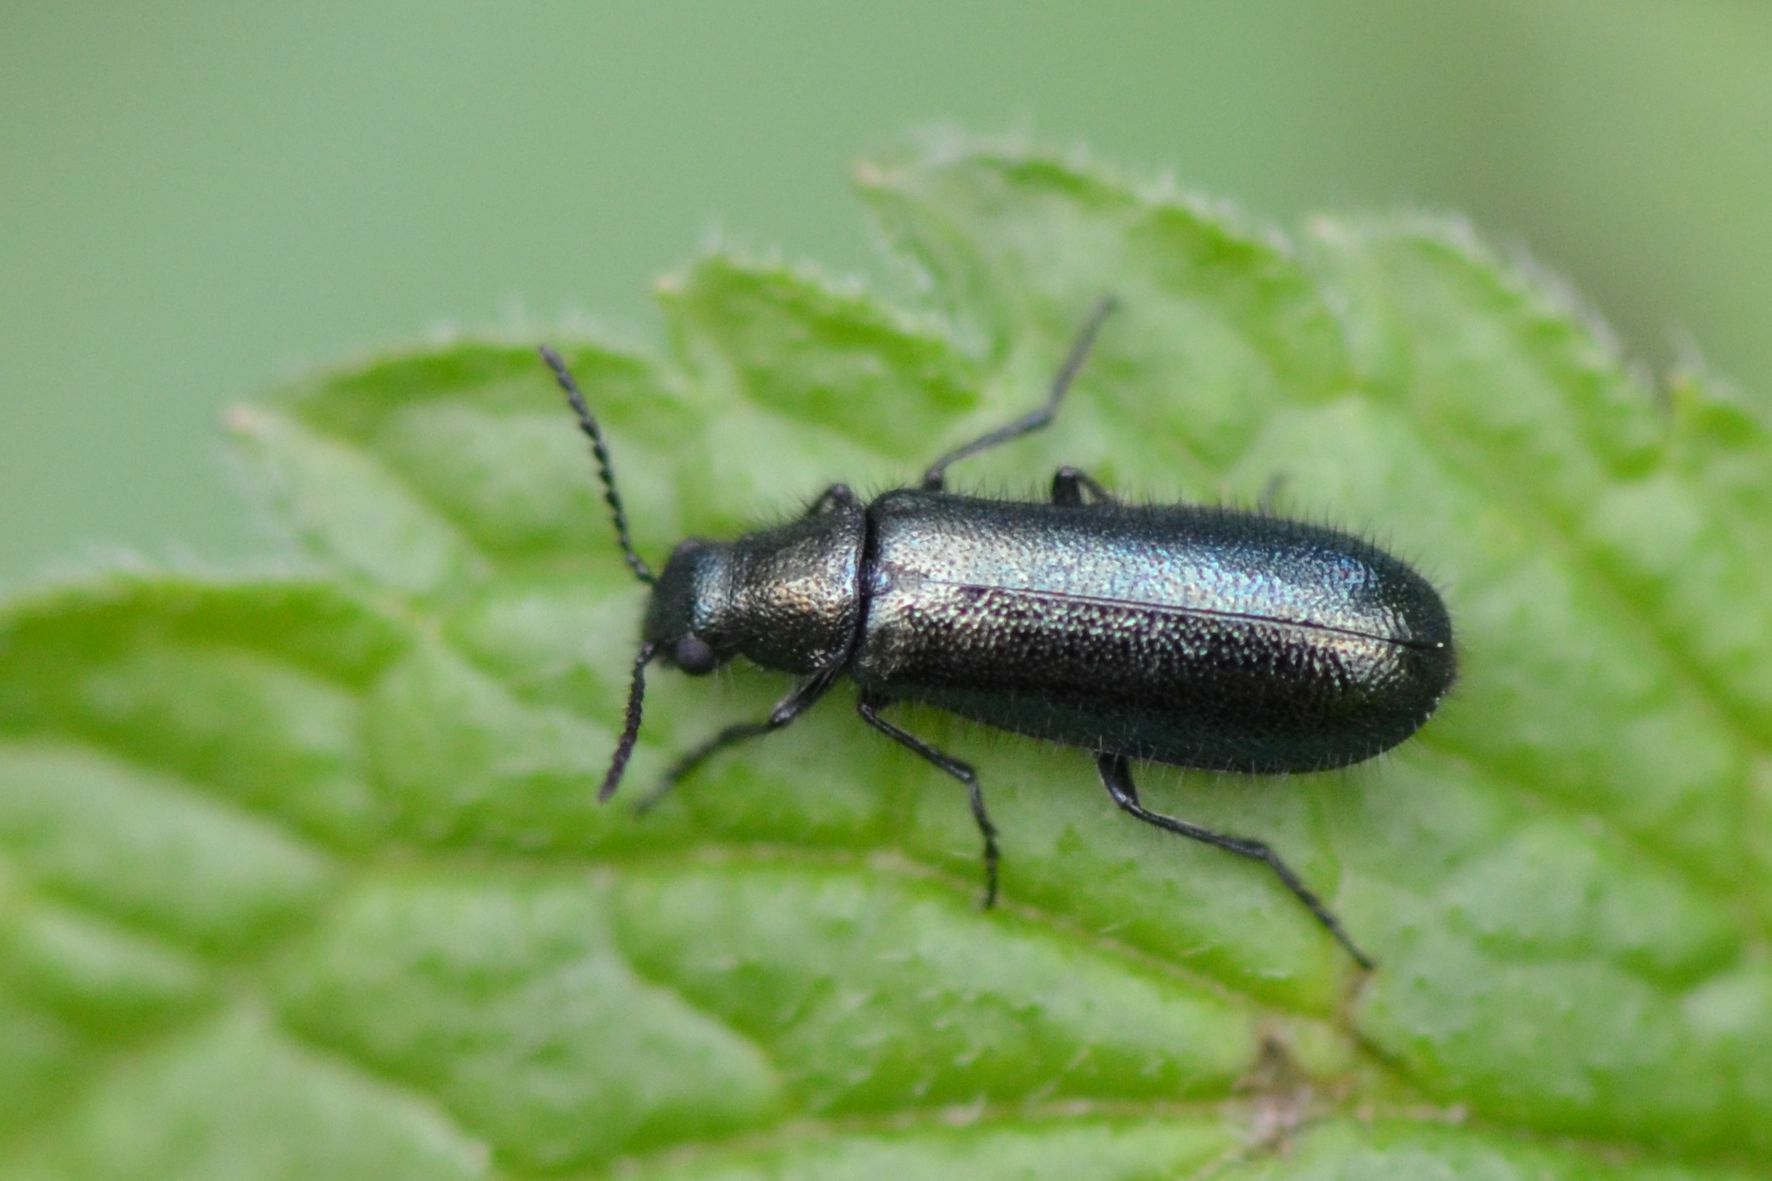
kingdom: Animalia
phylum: Arthropoda
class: Insecta
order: Coleoptera
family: Melyridae
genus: Dasytes
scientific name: Dasytes caeruleus
